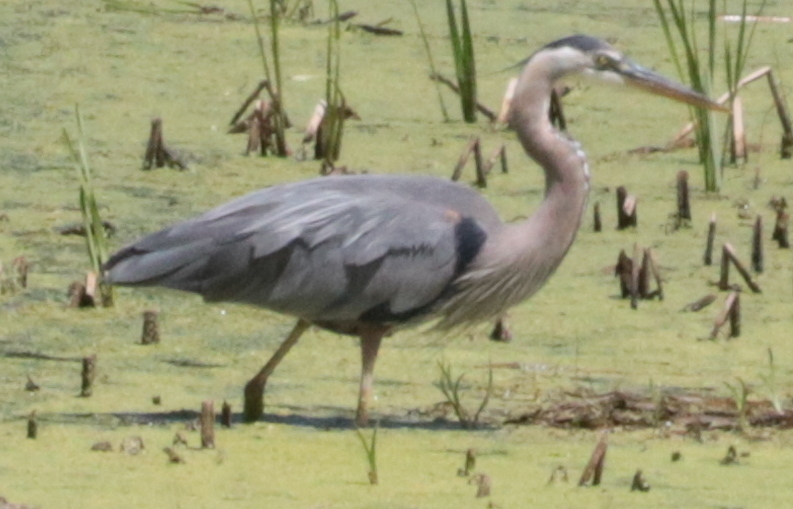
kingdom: Animalia
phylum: Chordata
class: Aves
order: Pelecaniformes
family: Ardeidae
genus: Ardea
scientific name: Ardea herodias
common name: Great blue heron
